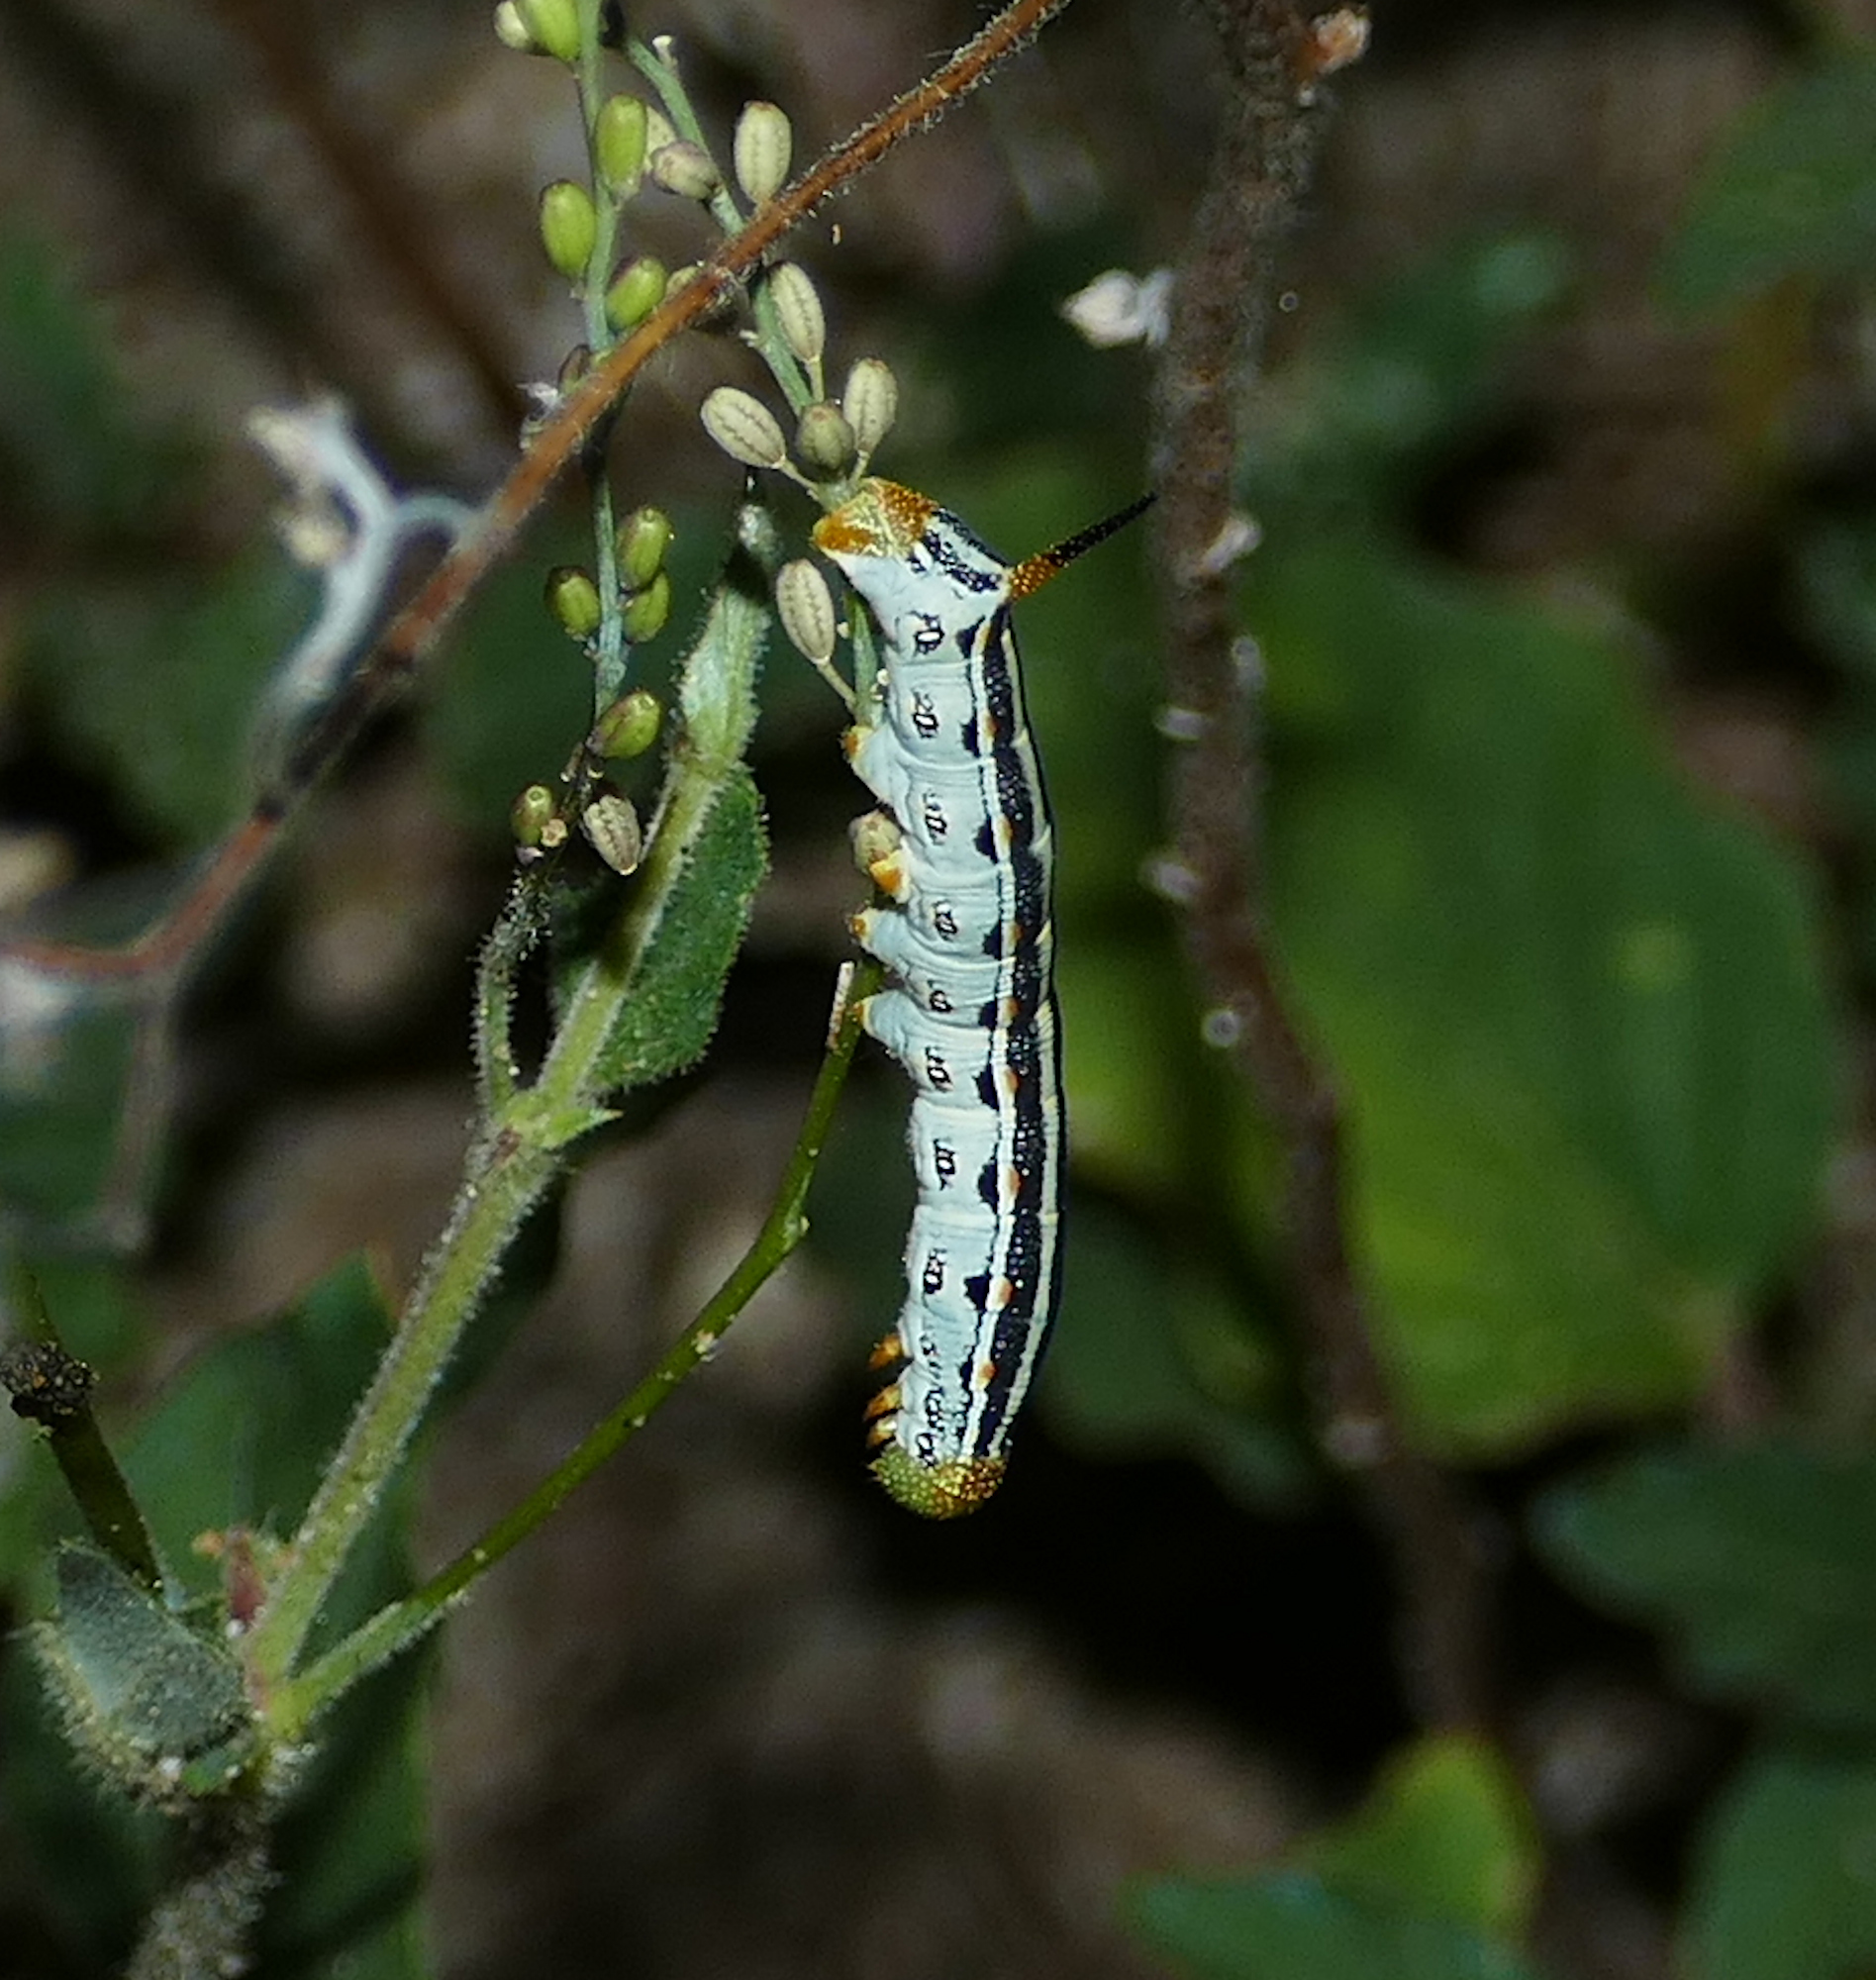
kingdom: Animalia
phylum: Arthropoda
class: Insecta
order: Lepidoptera
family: Sphingidae
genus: Hyles
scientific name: Hyles lineata
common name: White-lined sphinx
